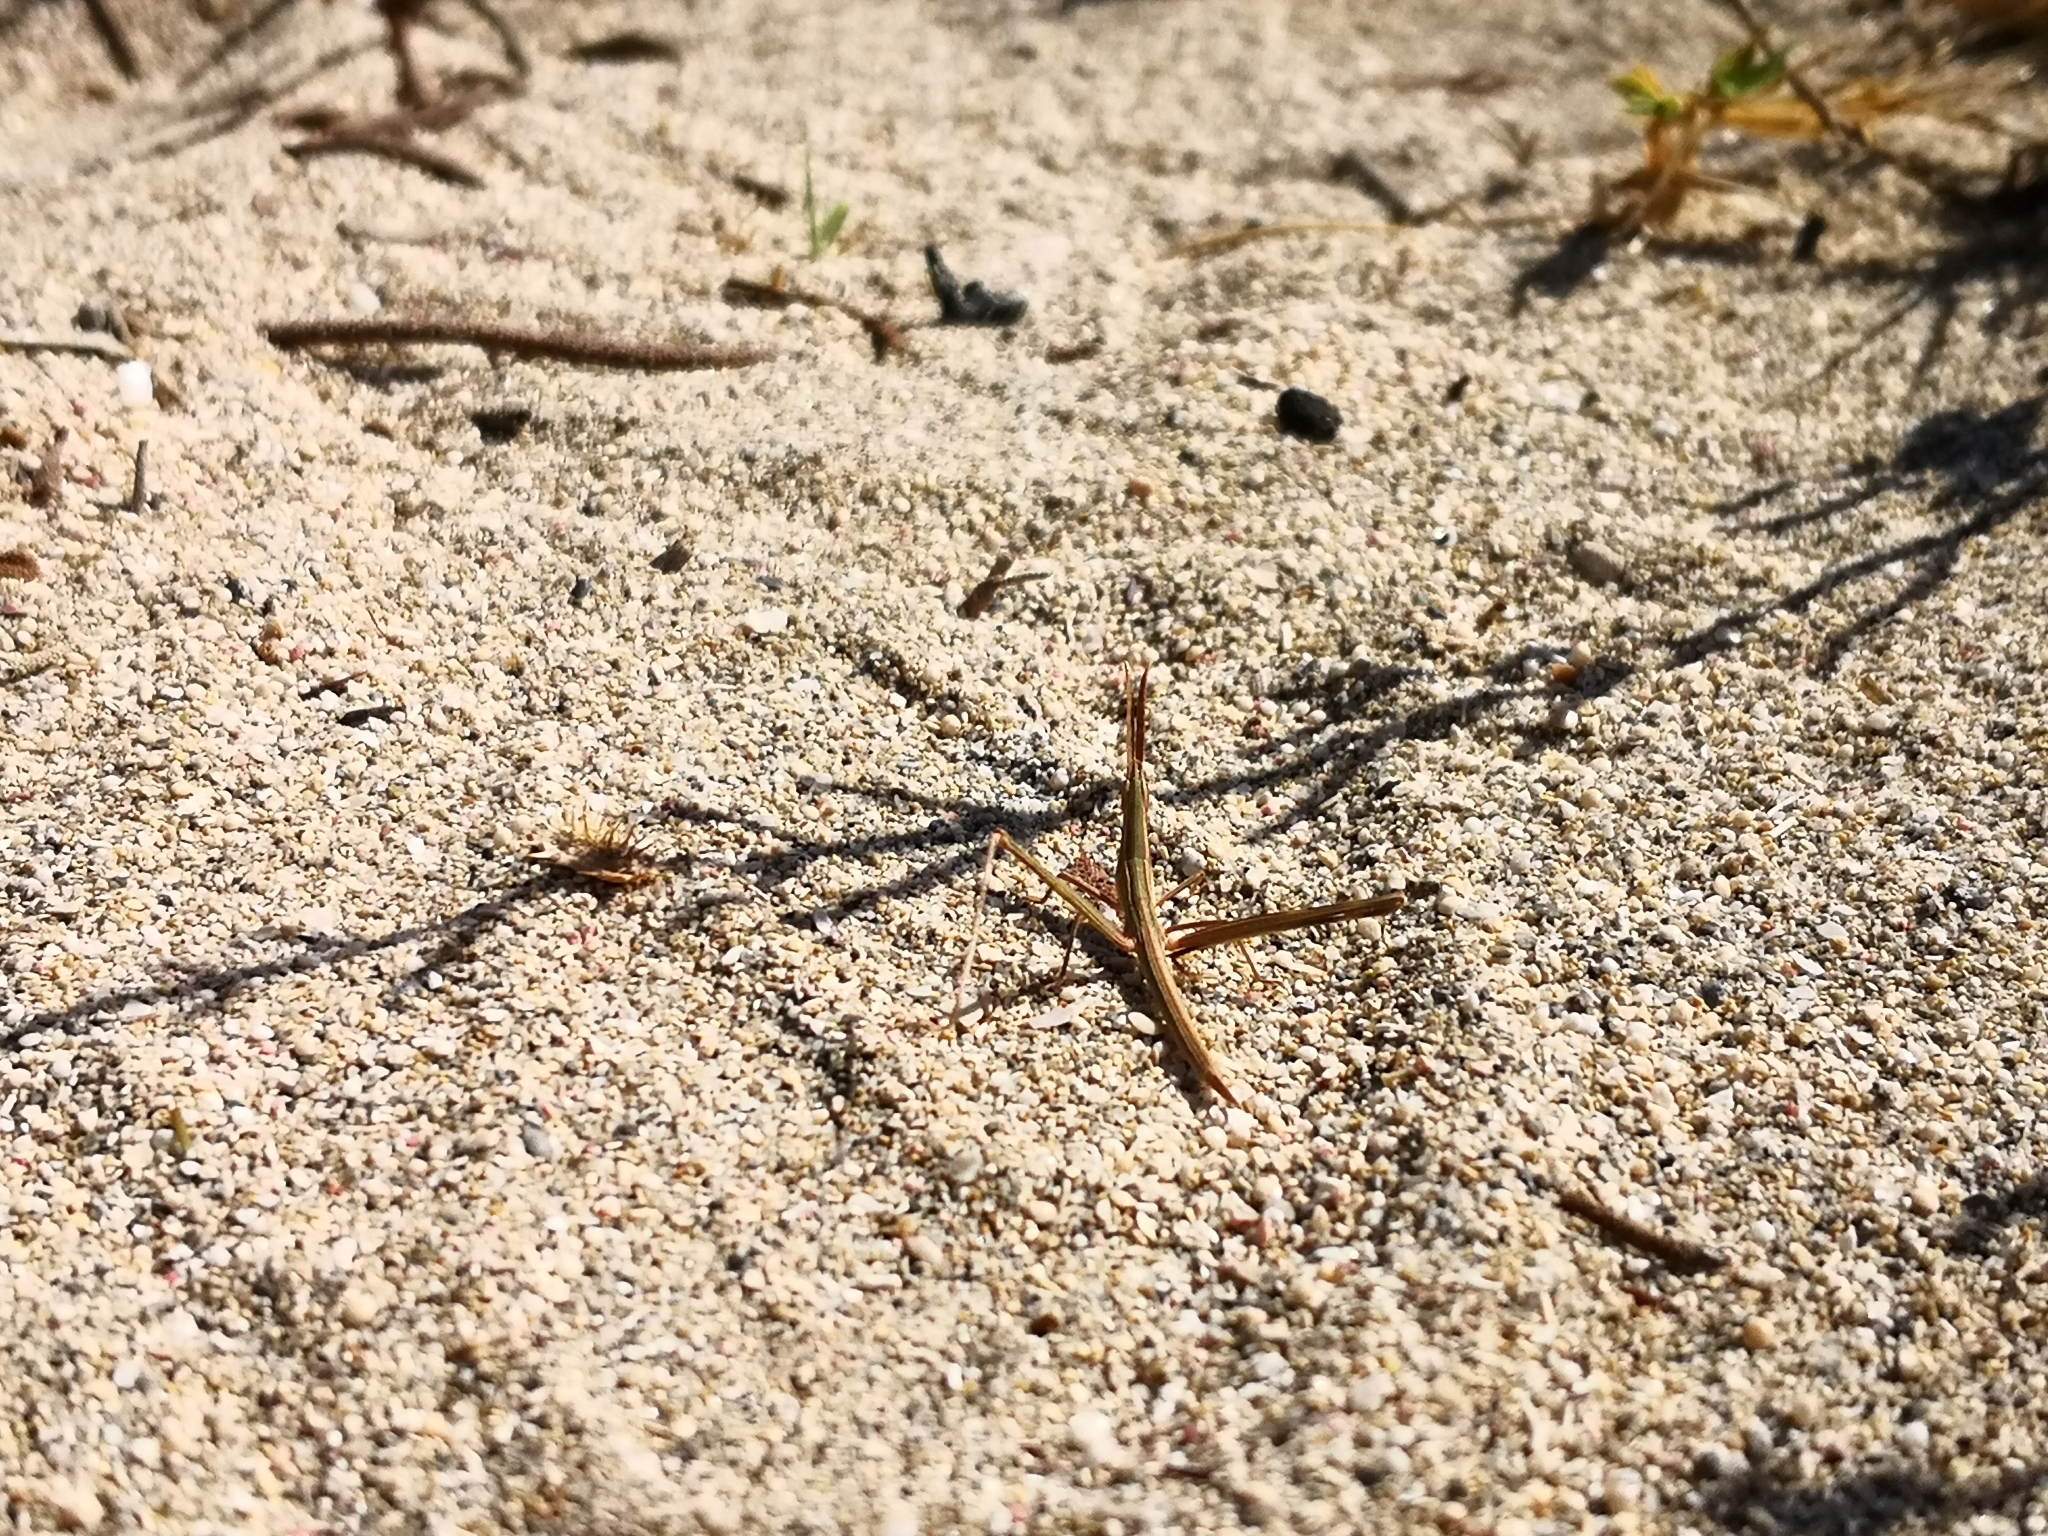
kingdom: Animalia
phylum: Arthropoda
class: Insecta
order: Orthoptera
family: Acrididae
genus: Acrida
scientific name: Acrida turrita
